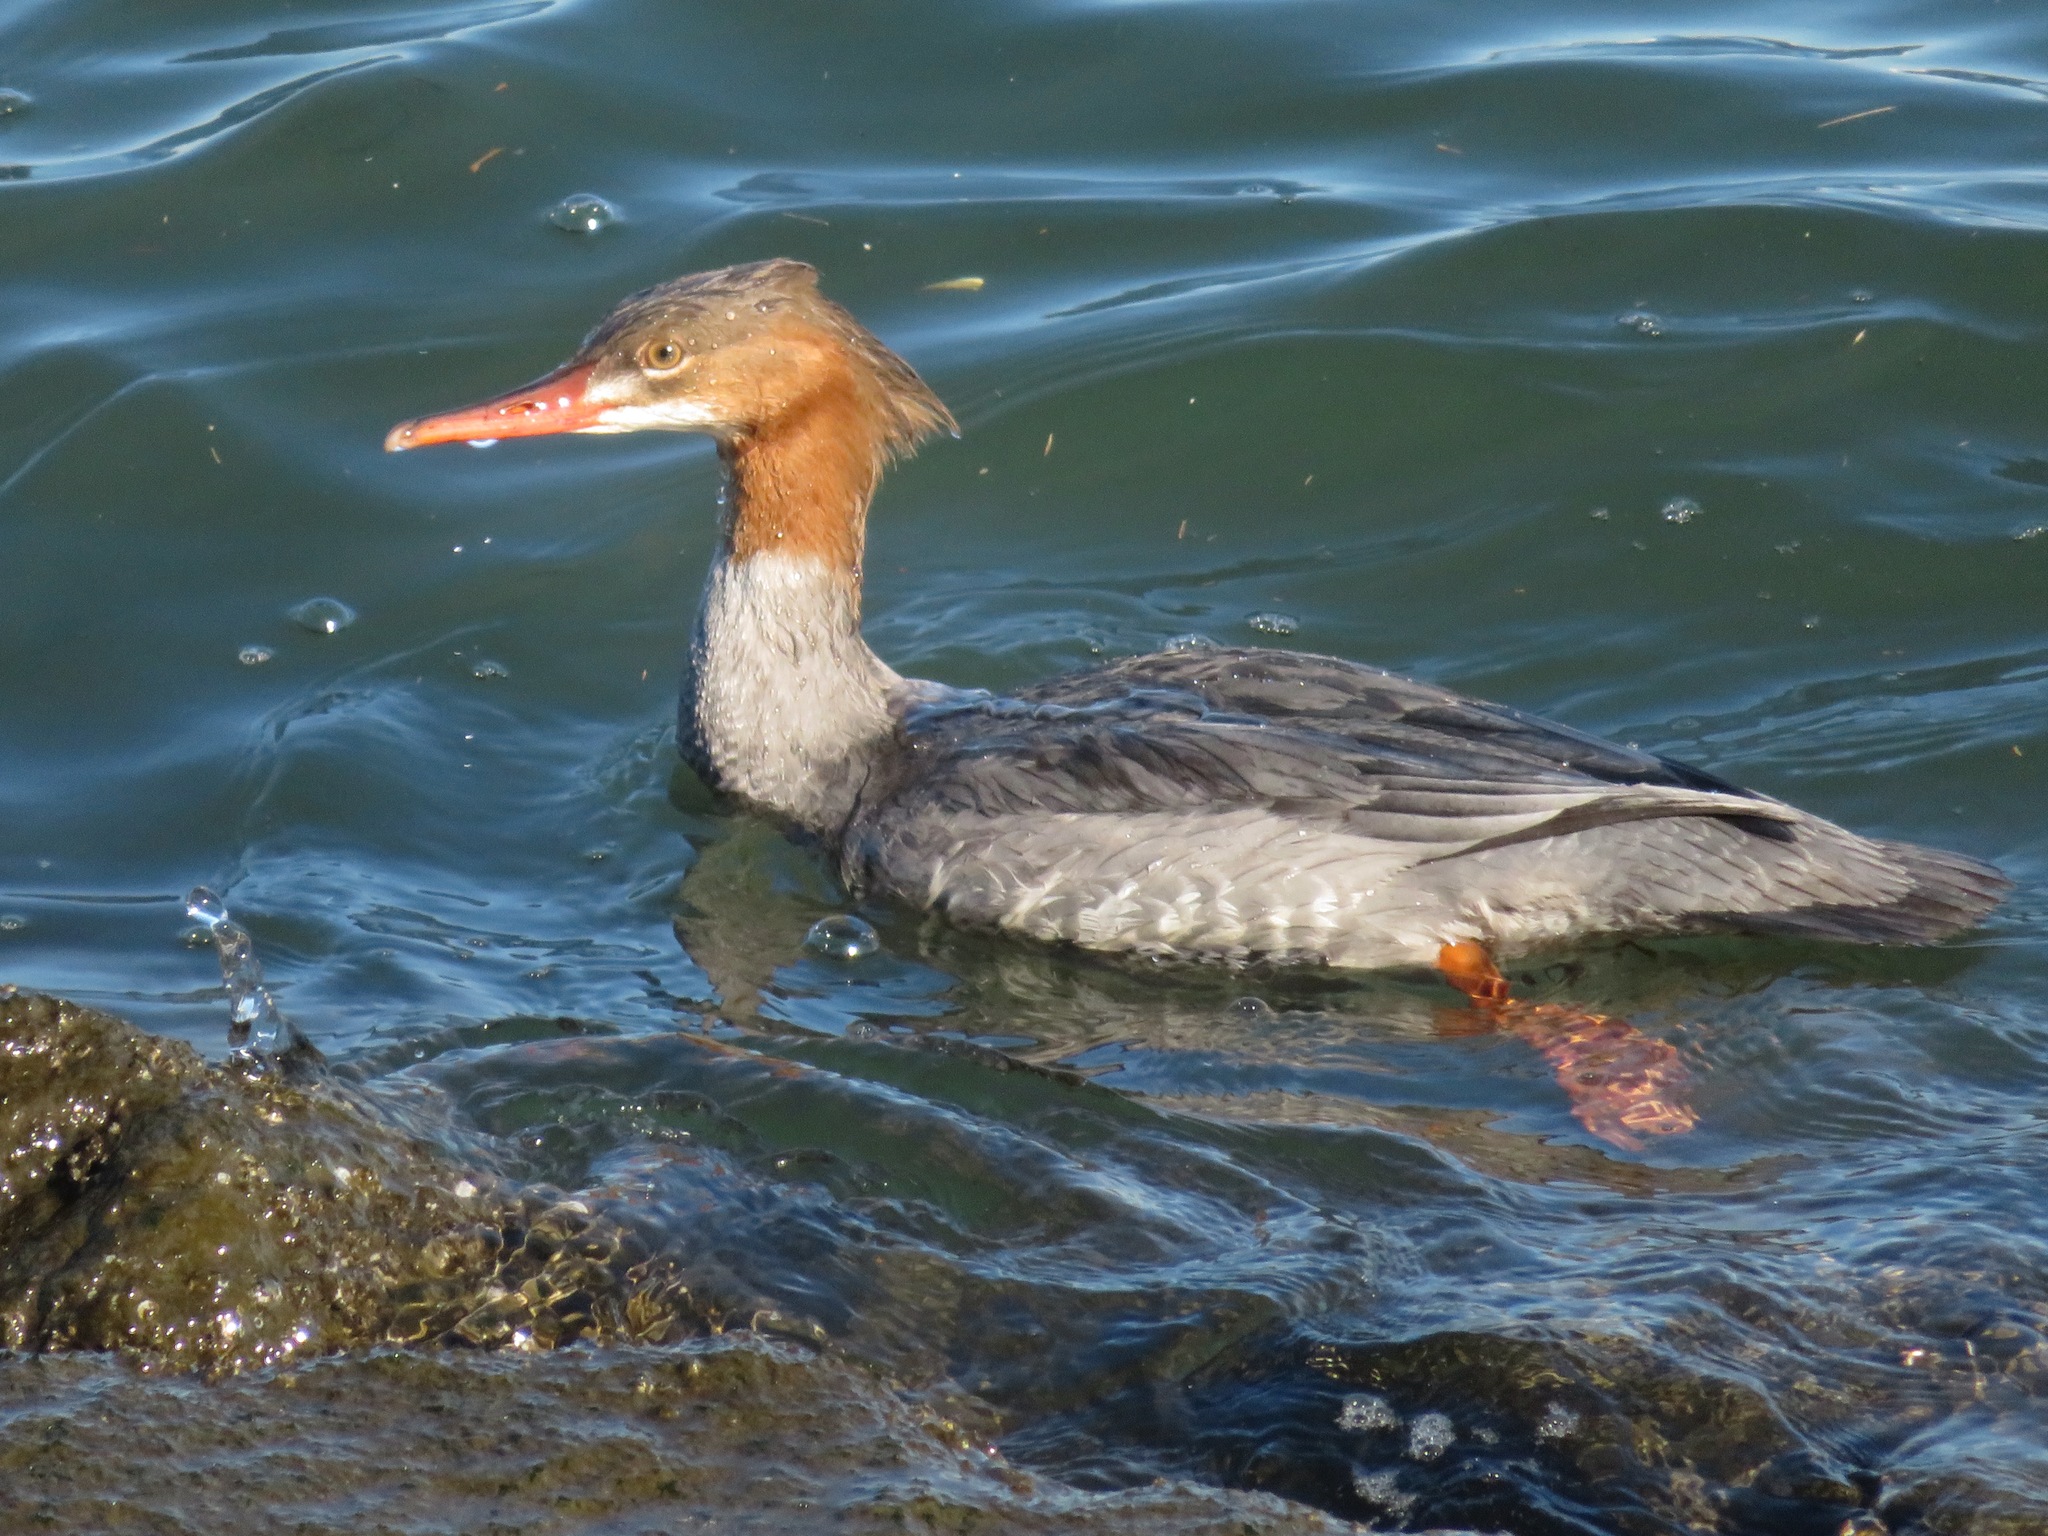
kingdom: Animalia
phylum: Chordata
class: Aves
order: Anseriformes
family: Anatidae
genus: Mergus
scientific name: Mergus merganser
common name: Common merganser
